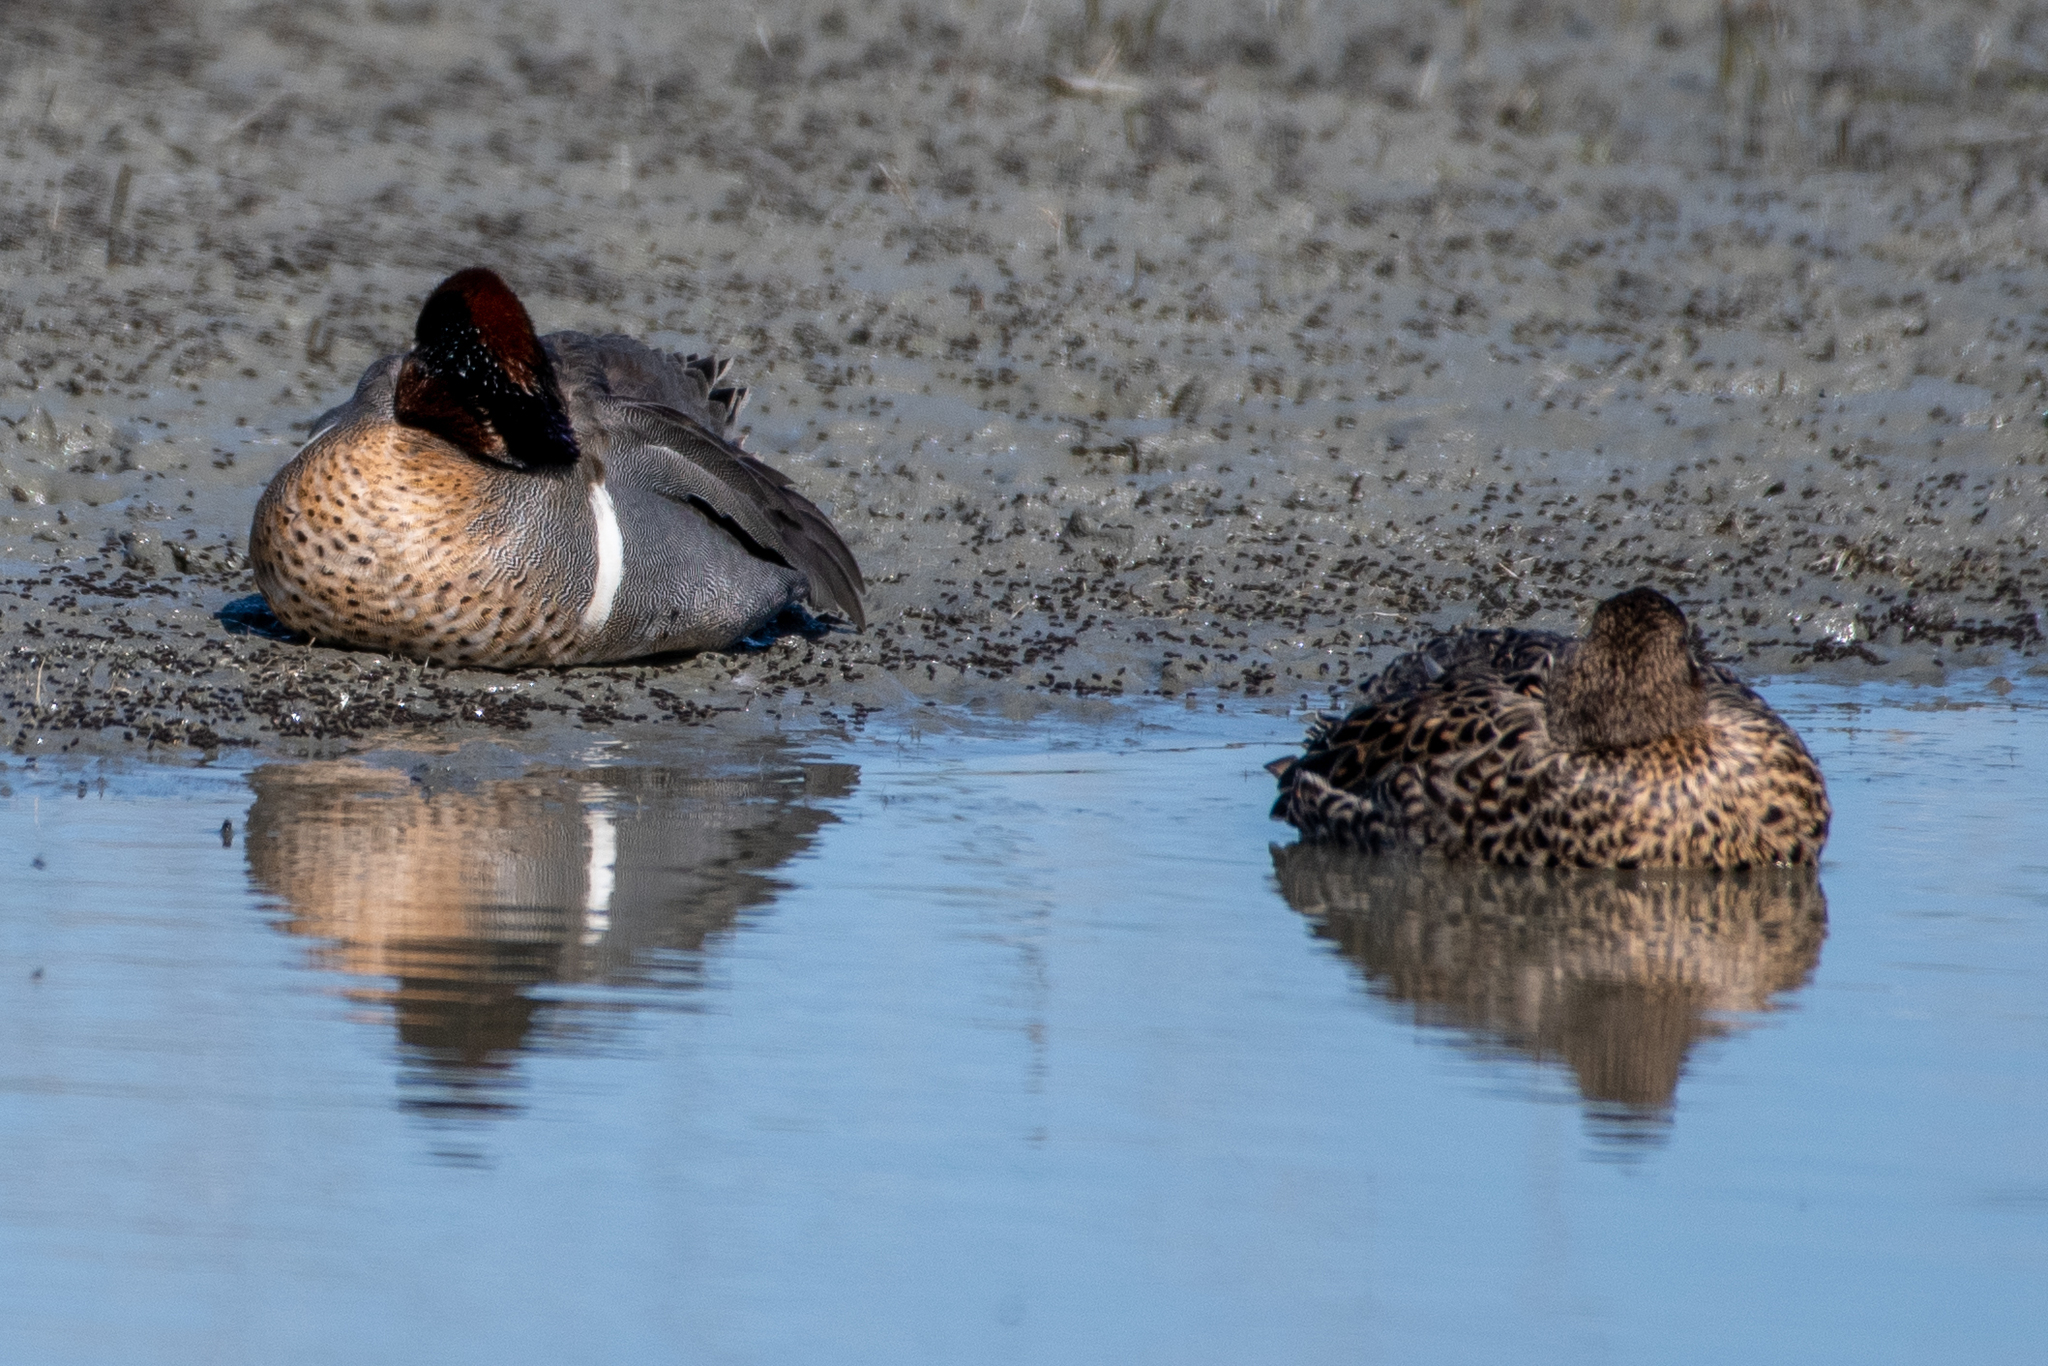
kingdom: Animalia
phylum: Chordata
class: Aves
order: Anseriformes
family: Anatidae
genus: Anas
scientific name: Anas crecca
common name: Eurasian teal
